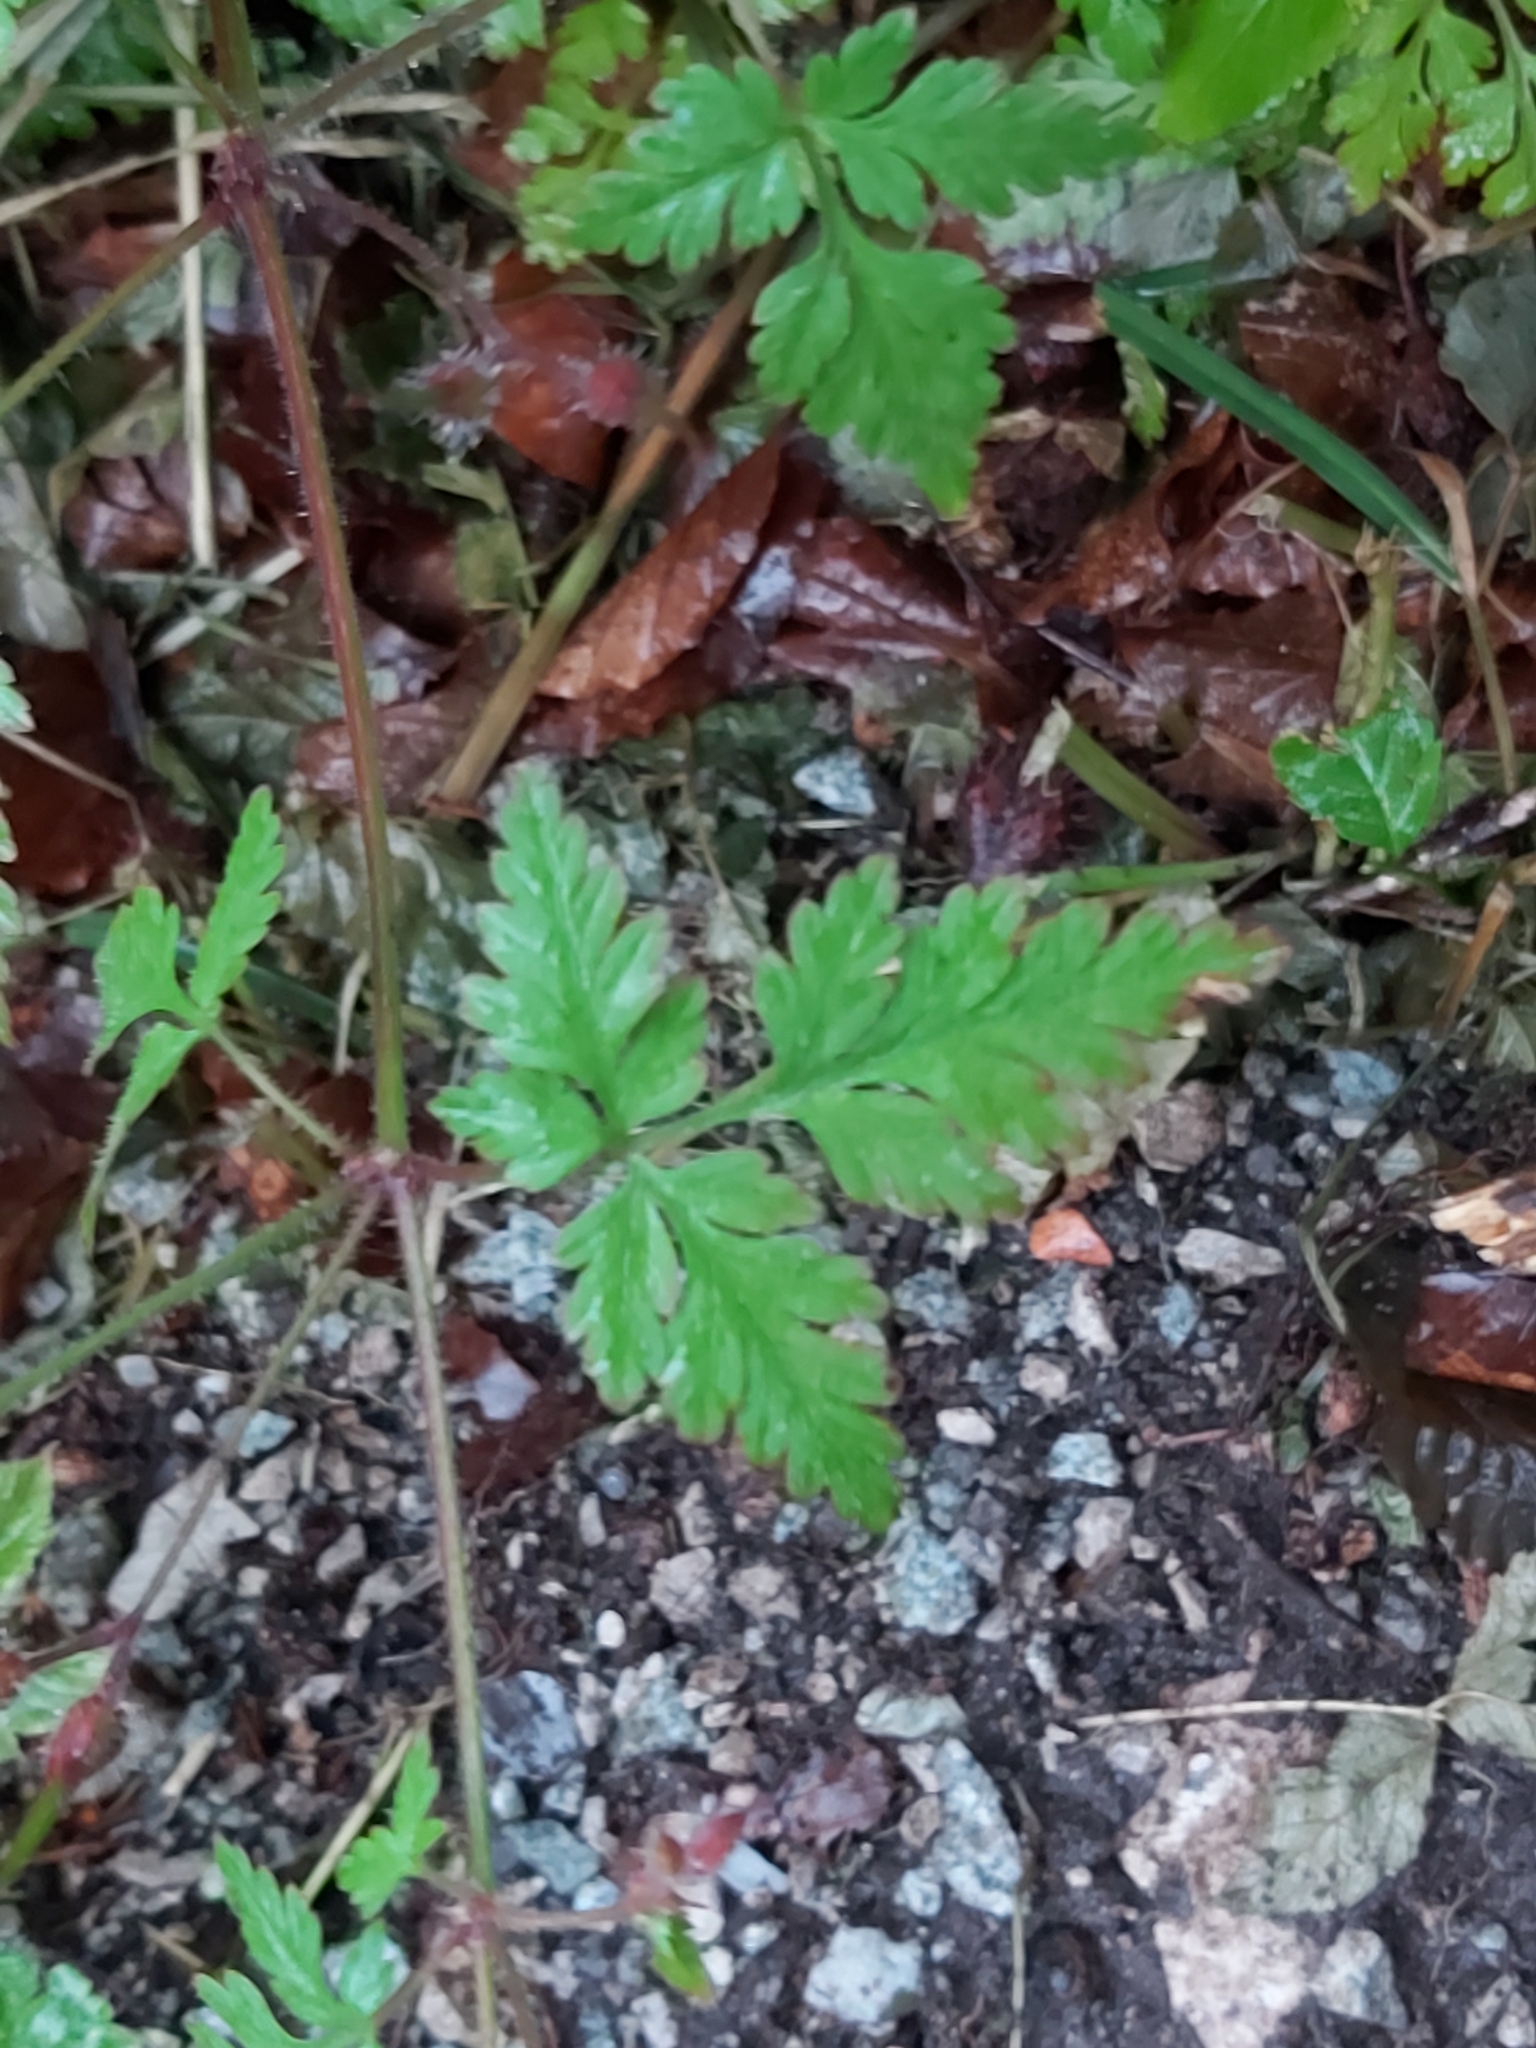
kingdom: Plantae
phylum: Tracheophyta
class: Magnoliopsida
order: Geraniales
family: Geraniaceae
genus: Geranium
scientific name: Geranium robertianum
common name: Herb-robert
